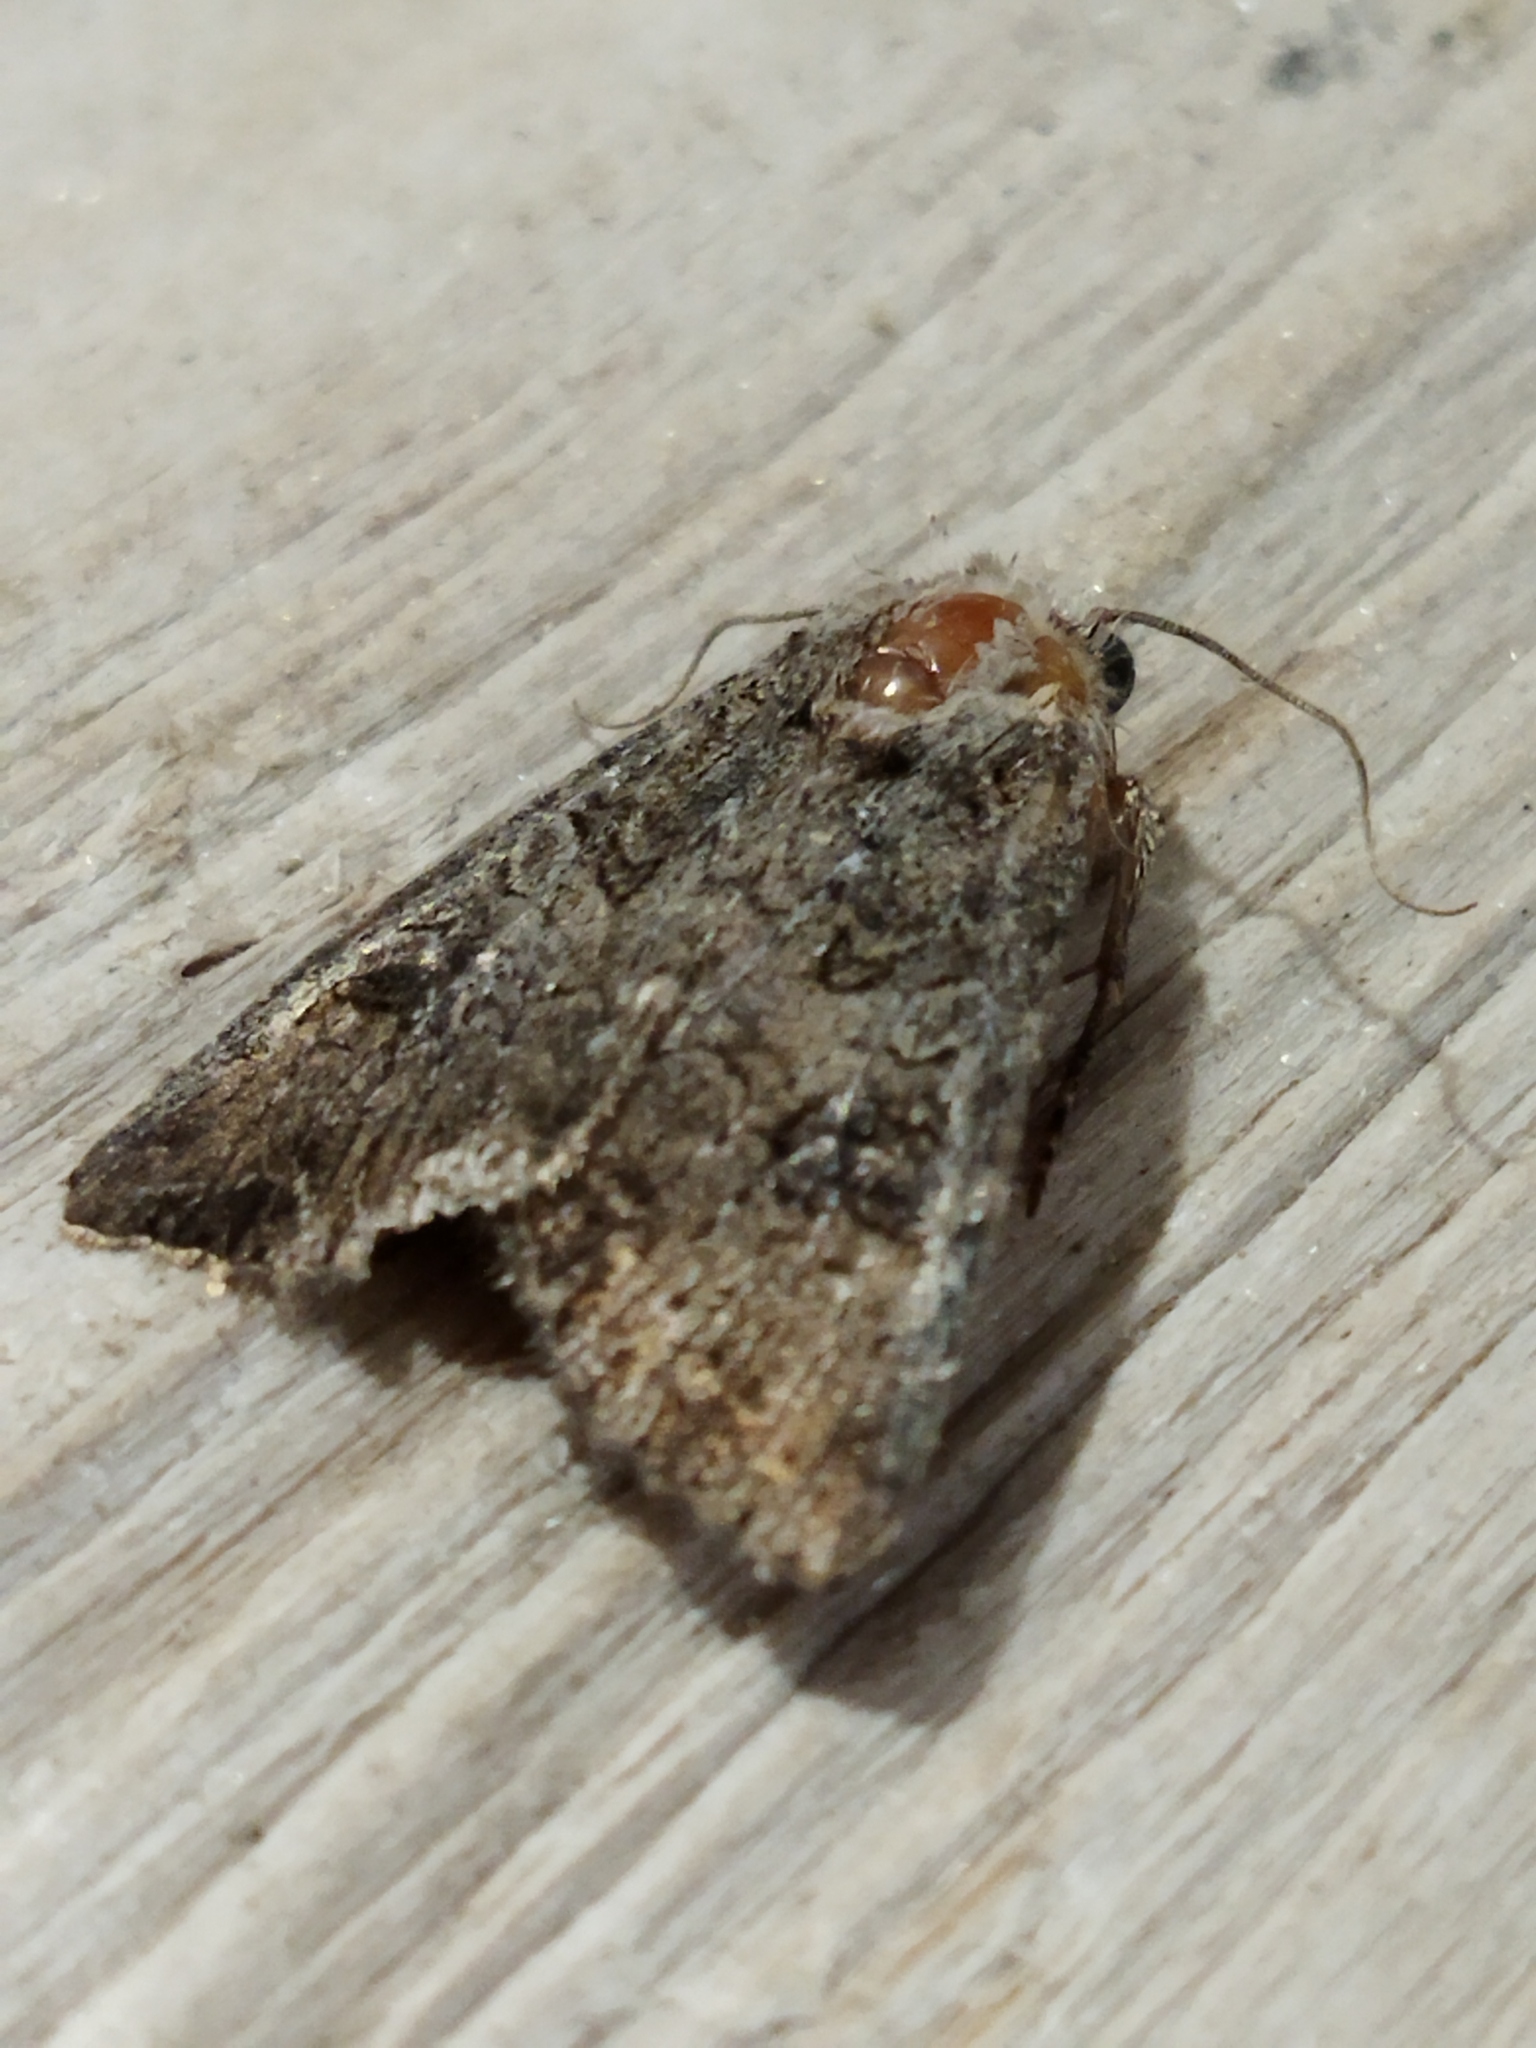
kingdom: Animalia
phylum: Arthropoda
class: Insecta
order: Lepidoptera
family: Noctuidae
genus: Anarta
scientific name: Anarta trifolii
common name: Clover cutworm moth
